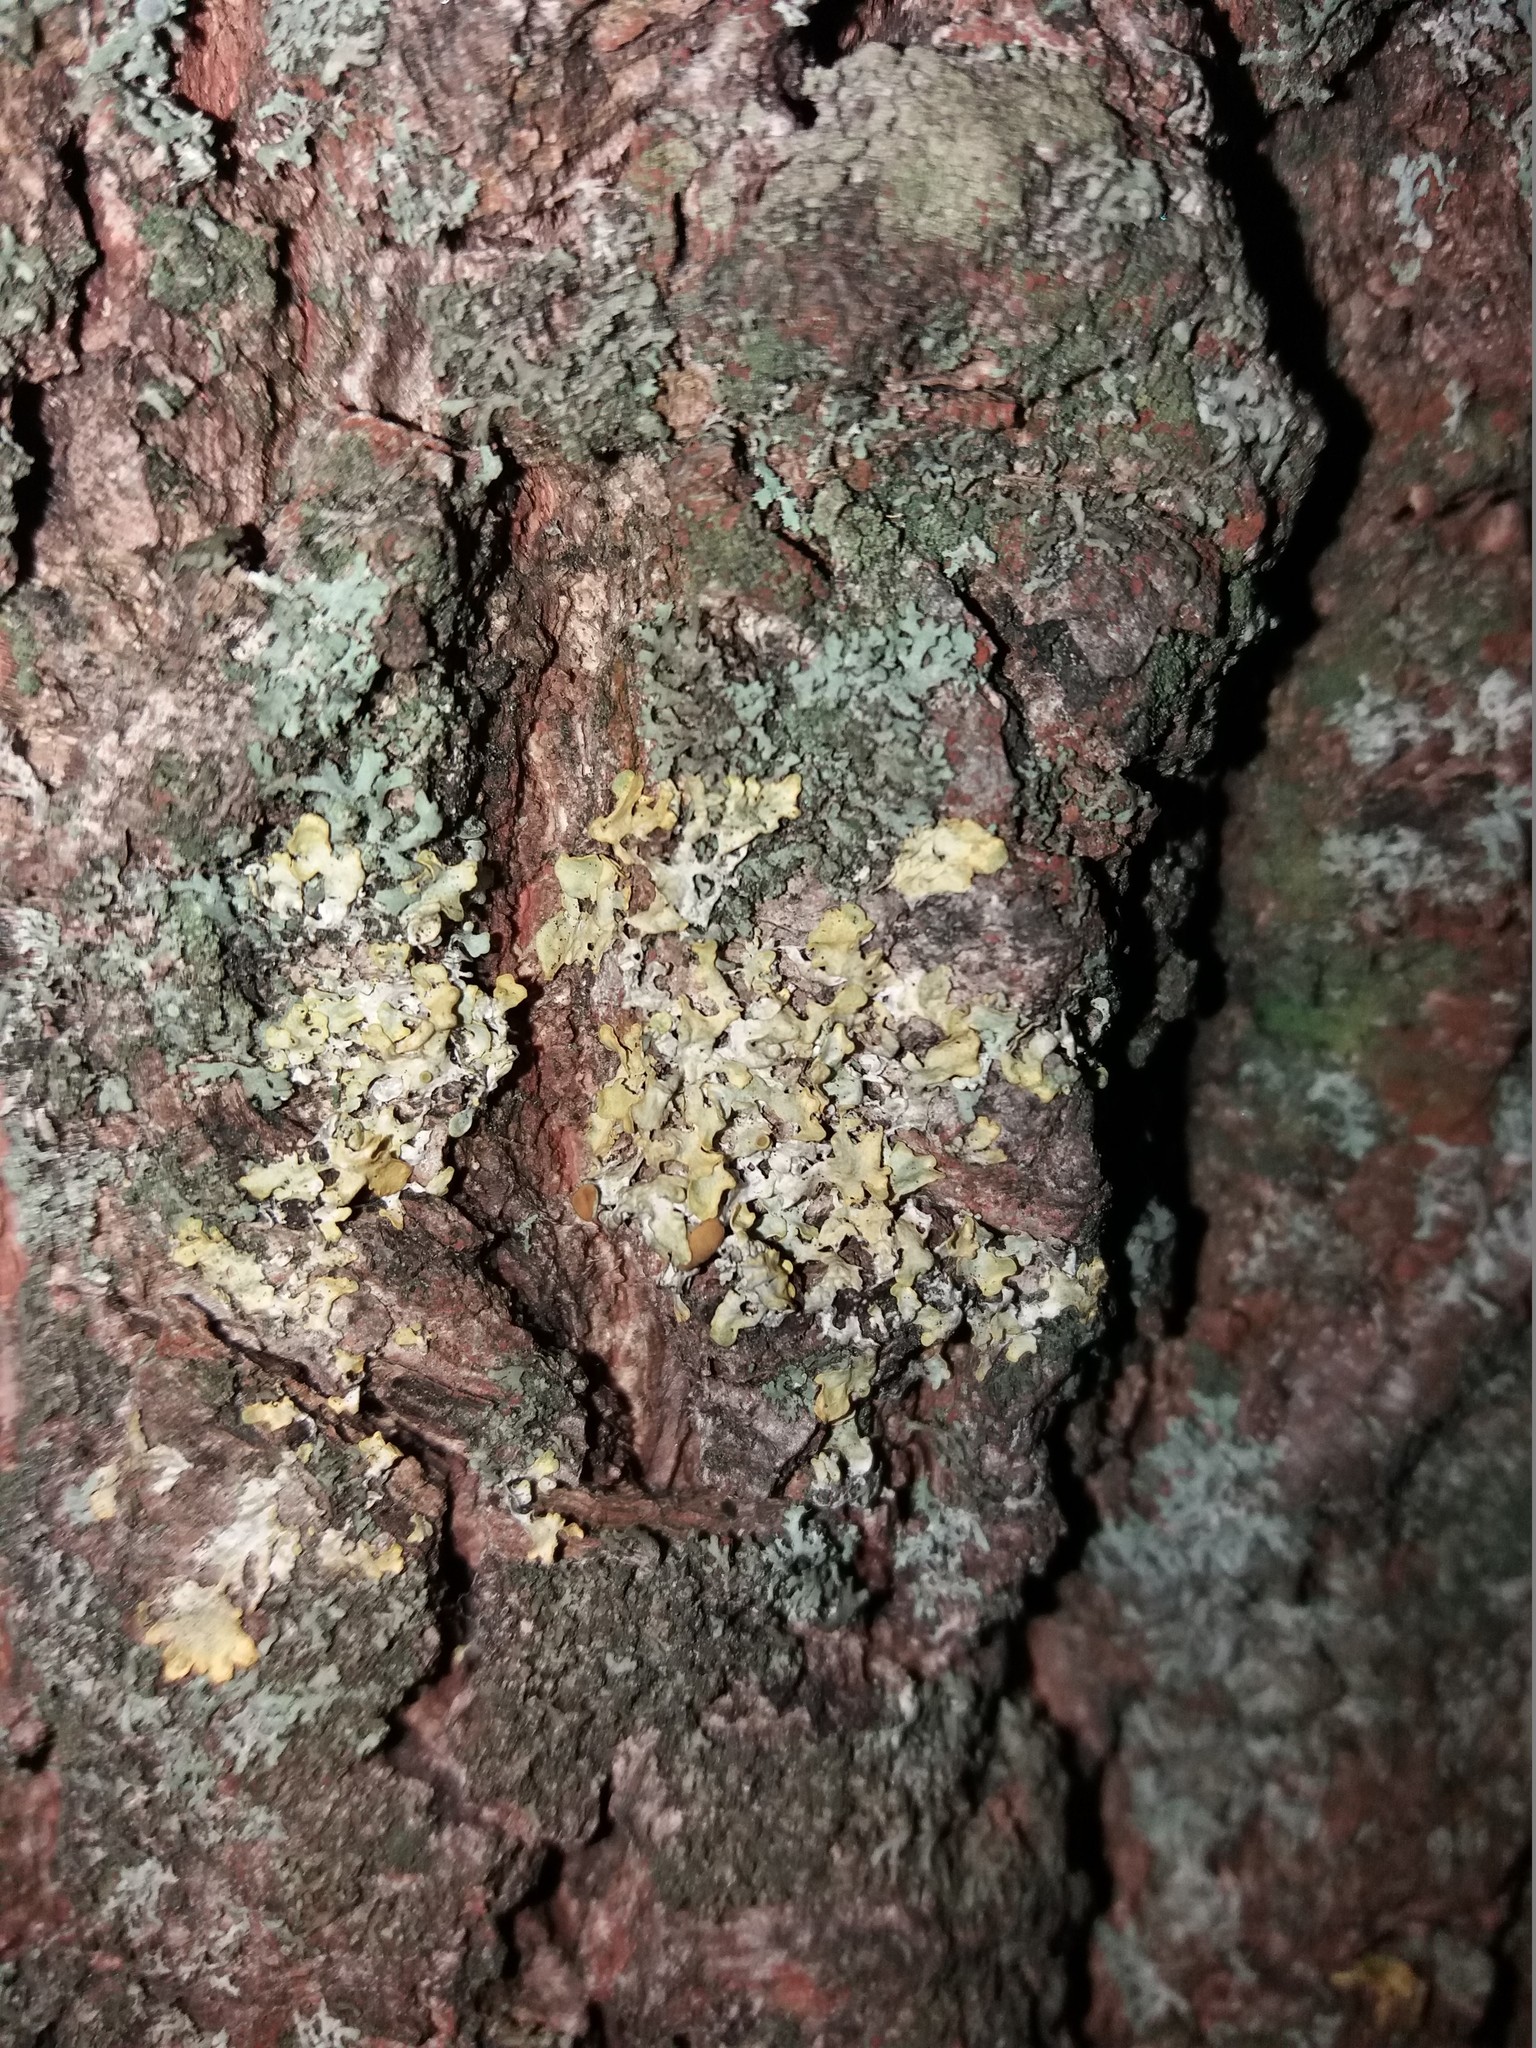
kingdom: Fungi
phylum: Ascomycota
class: Lecanoromycetes
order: Teloschistales
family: Teloschistaceae
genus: Xanthoria
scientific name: Xanthoria parietina
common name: Common orange lichen
